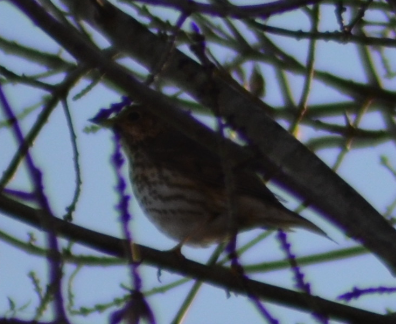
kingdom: Animalia
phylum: Chordata
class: Aves
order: Passeriformes
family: Turdidae
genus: Turdus
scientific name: Turdus philomelos
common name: Song thrush
